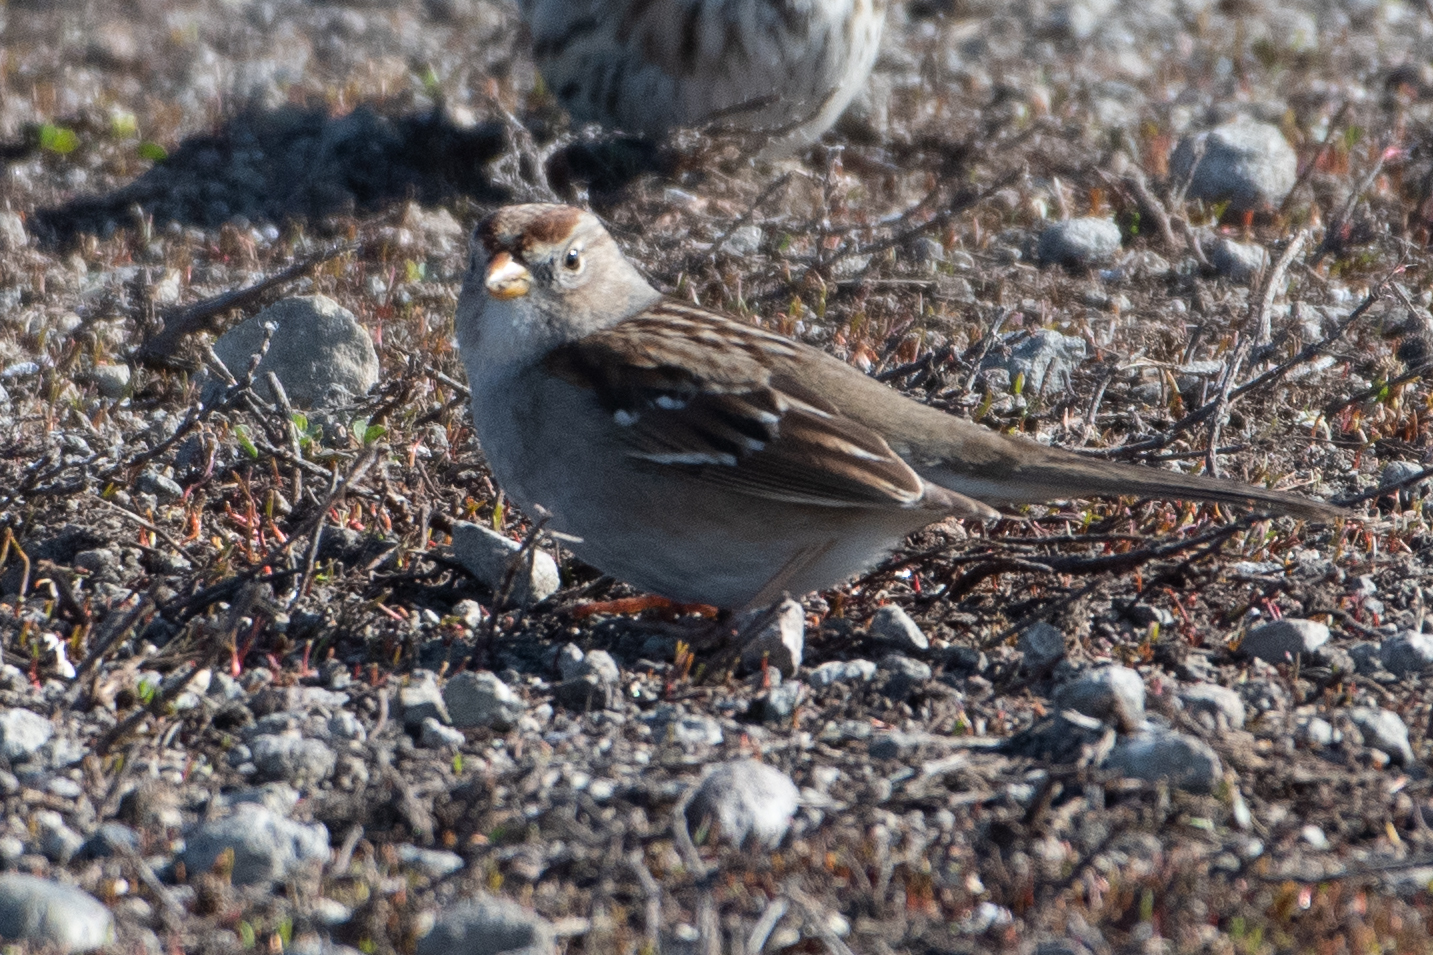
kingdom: Animalia
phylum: Chordata
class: Aves
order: Passeriformes
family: Passerellidae
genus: Zonotrichia
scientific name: Zonotrichia leucophrys
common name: White-crowned sparrow
